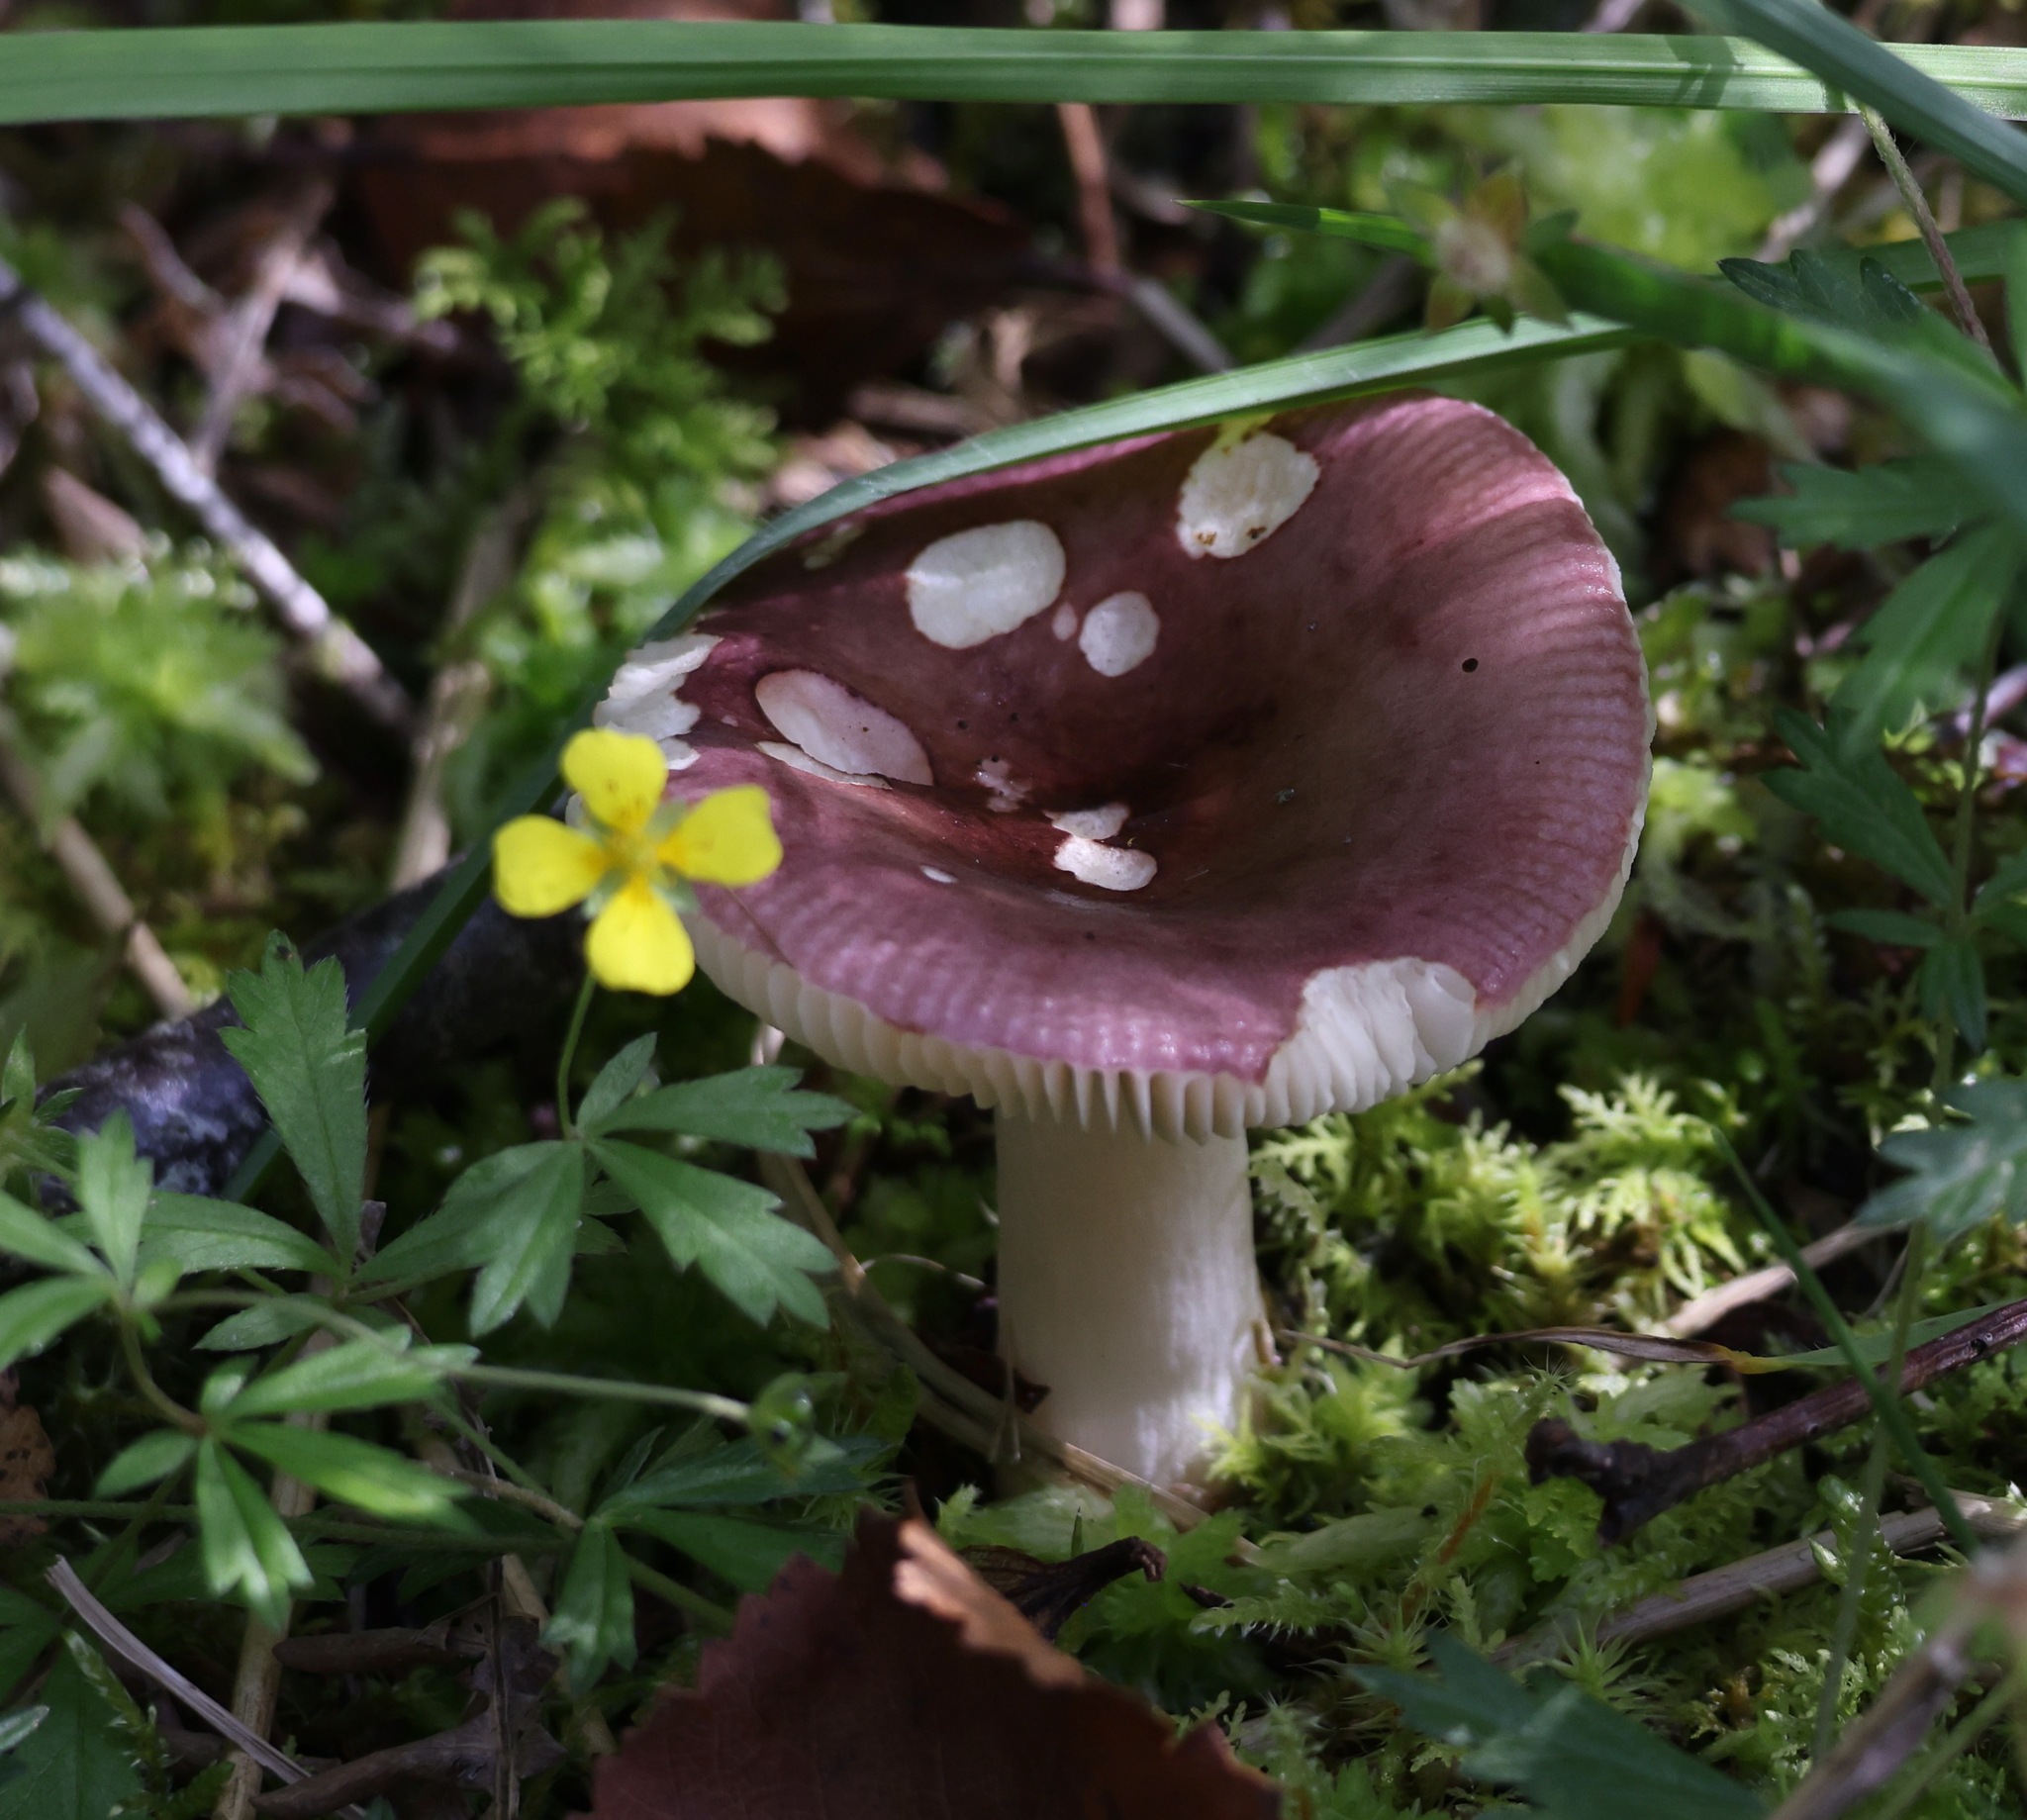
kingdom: Fungi
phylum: Basidiomycota
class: Agaricomycetes
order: Russulales
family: Russulaceae
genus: Russula
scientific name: Russula cyanoxantha
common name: Charcoal burner
